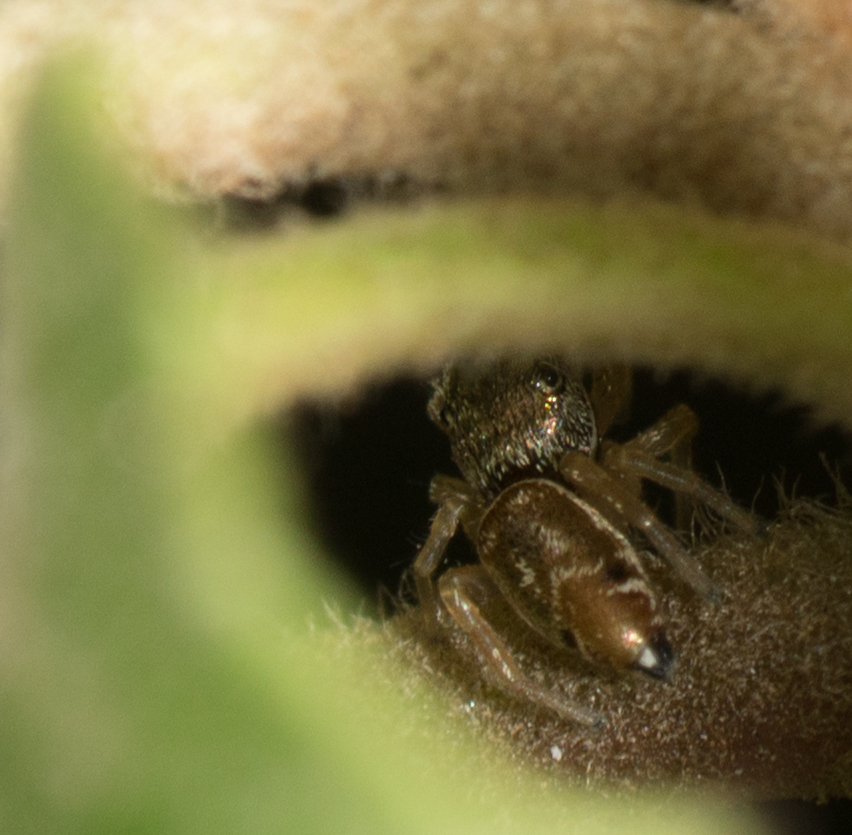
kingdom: Animalia
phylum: Arthropoda
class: Arachnida
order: Araneae
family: Salticidae
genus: Sassacus
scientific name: Sassacus vitis
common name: Jumping spiders
